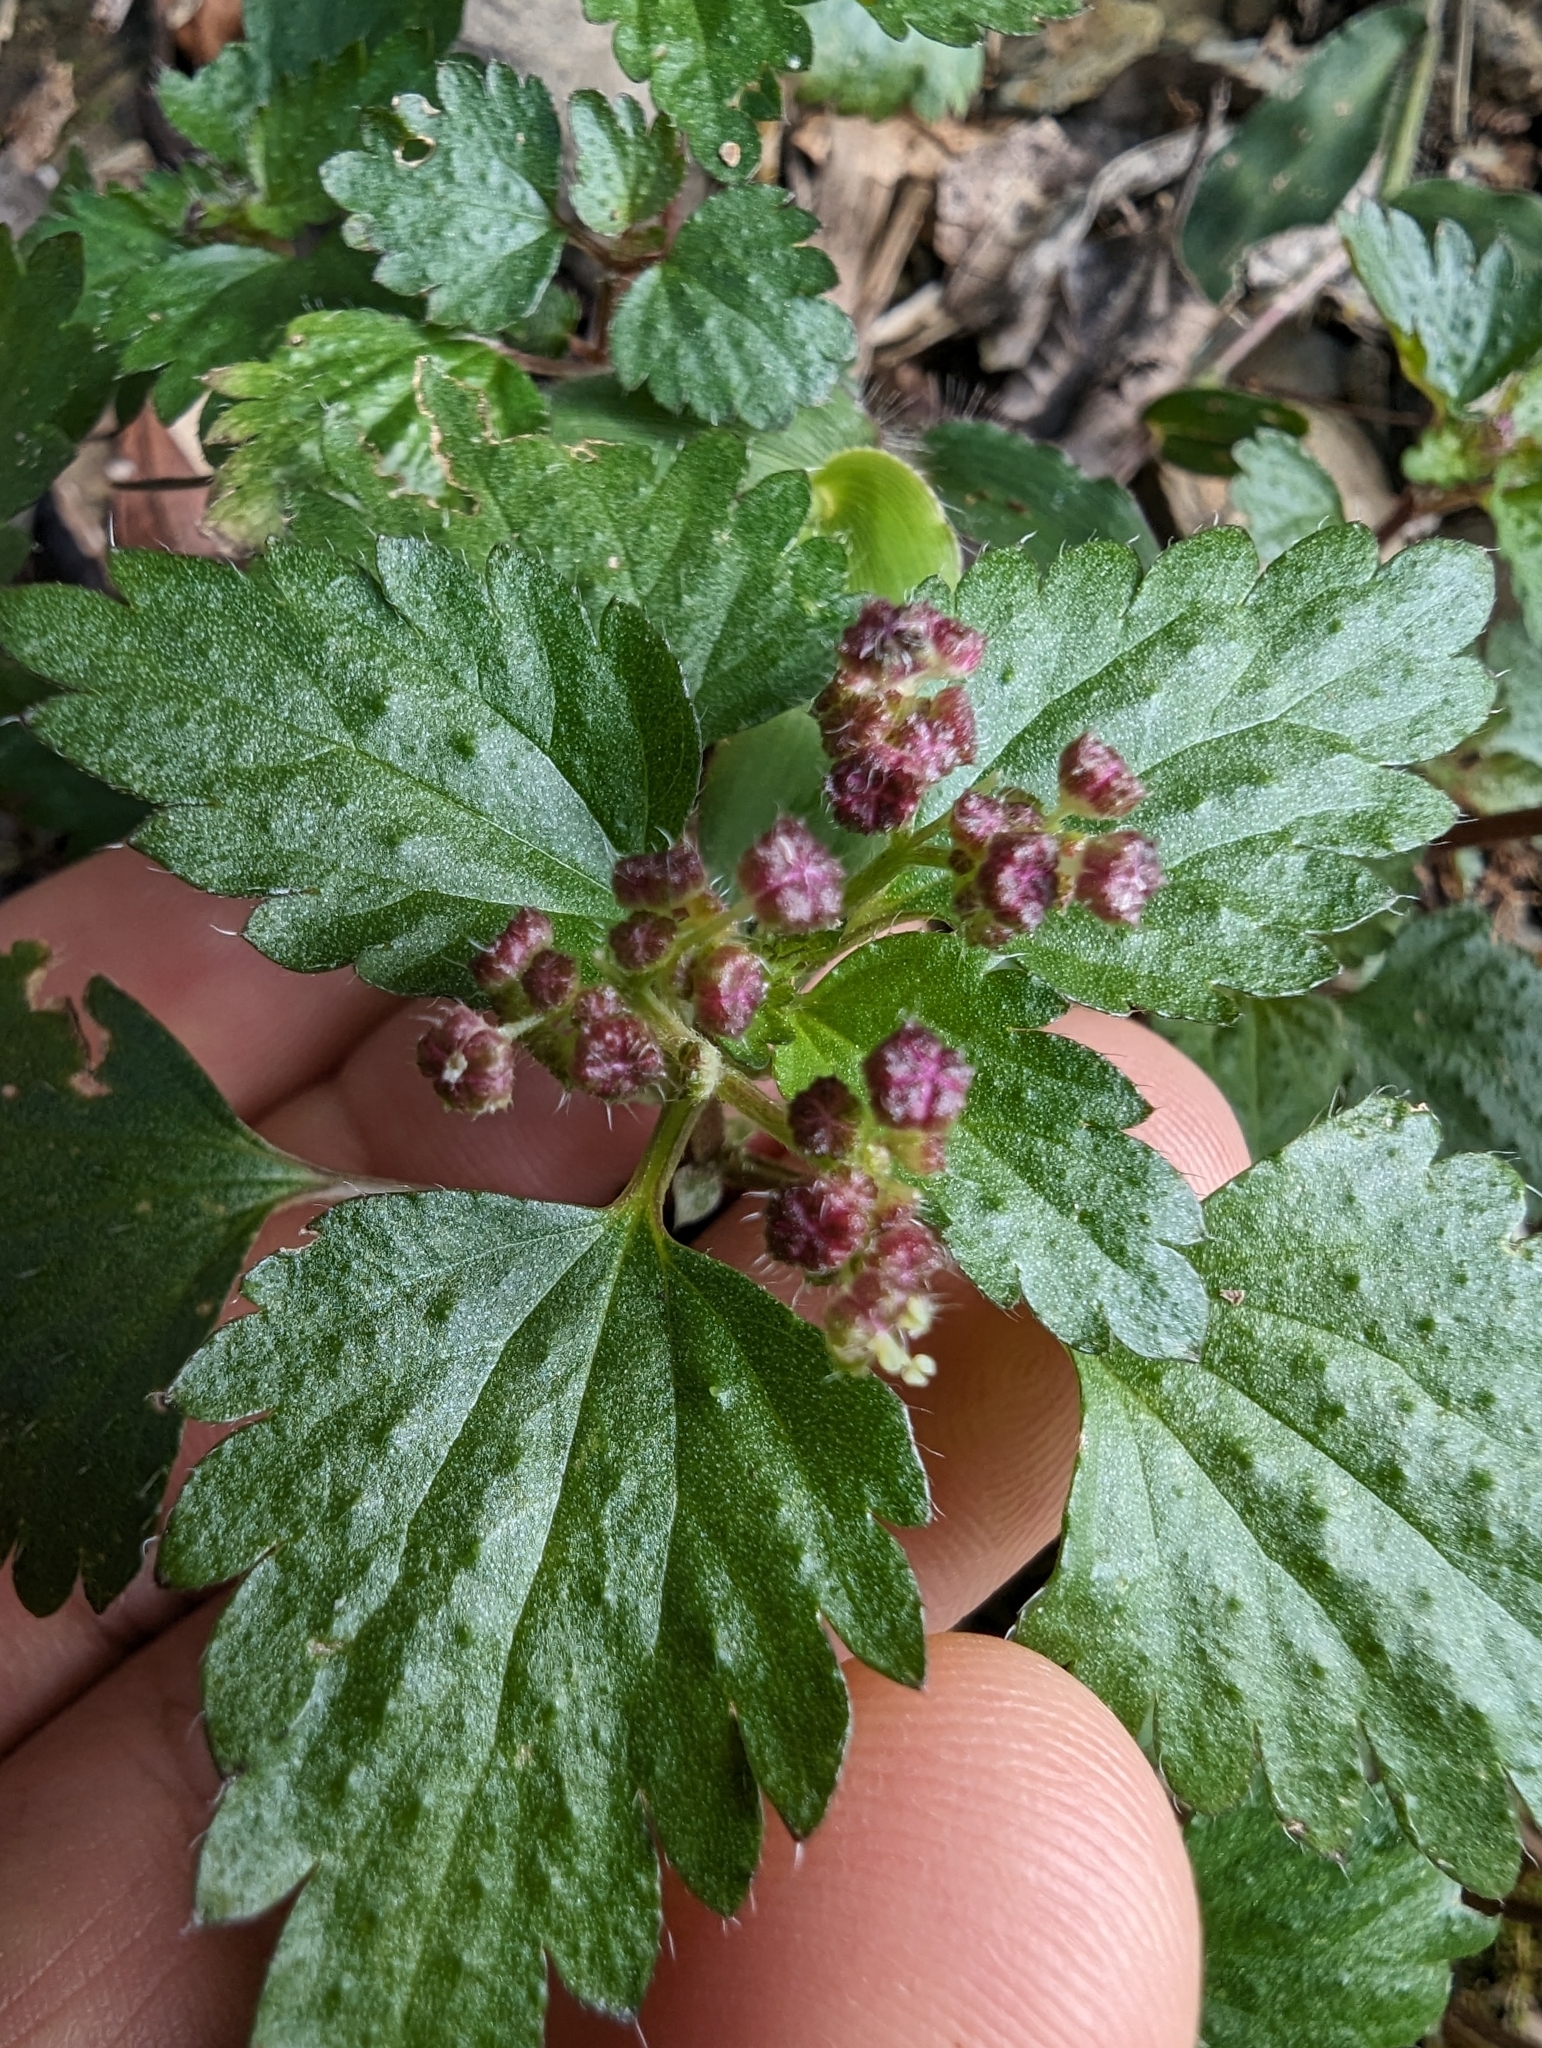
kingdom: Plantae
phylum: Tracheophyta
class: Magnoliopsida
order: Rosales
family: Urticaceae
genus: Nanocnide
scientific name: Nanocnide japonica
